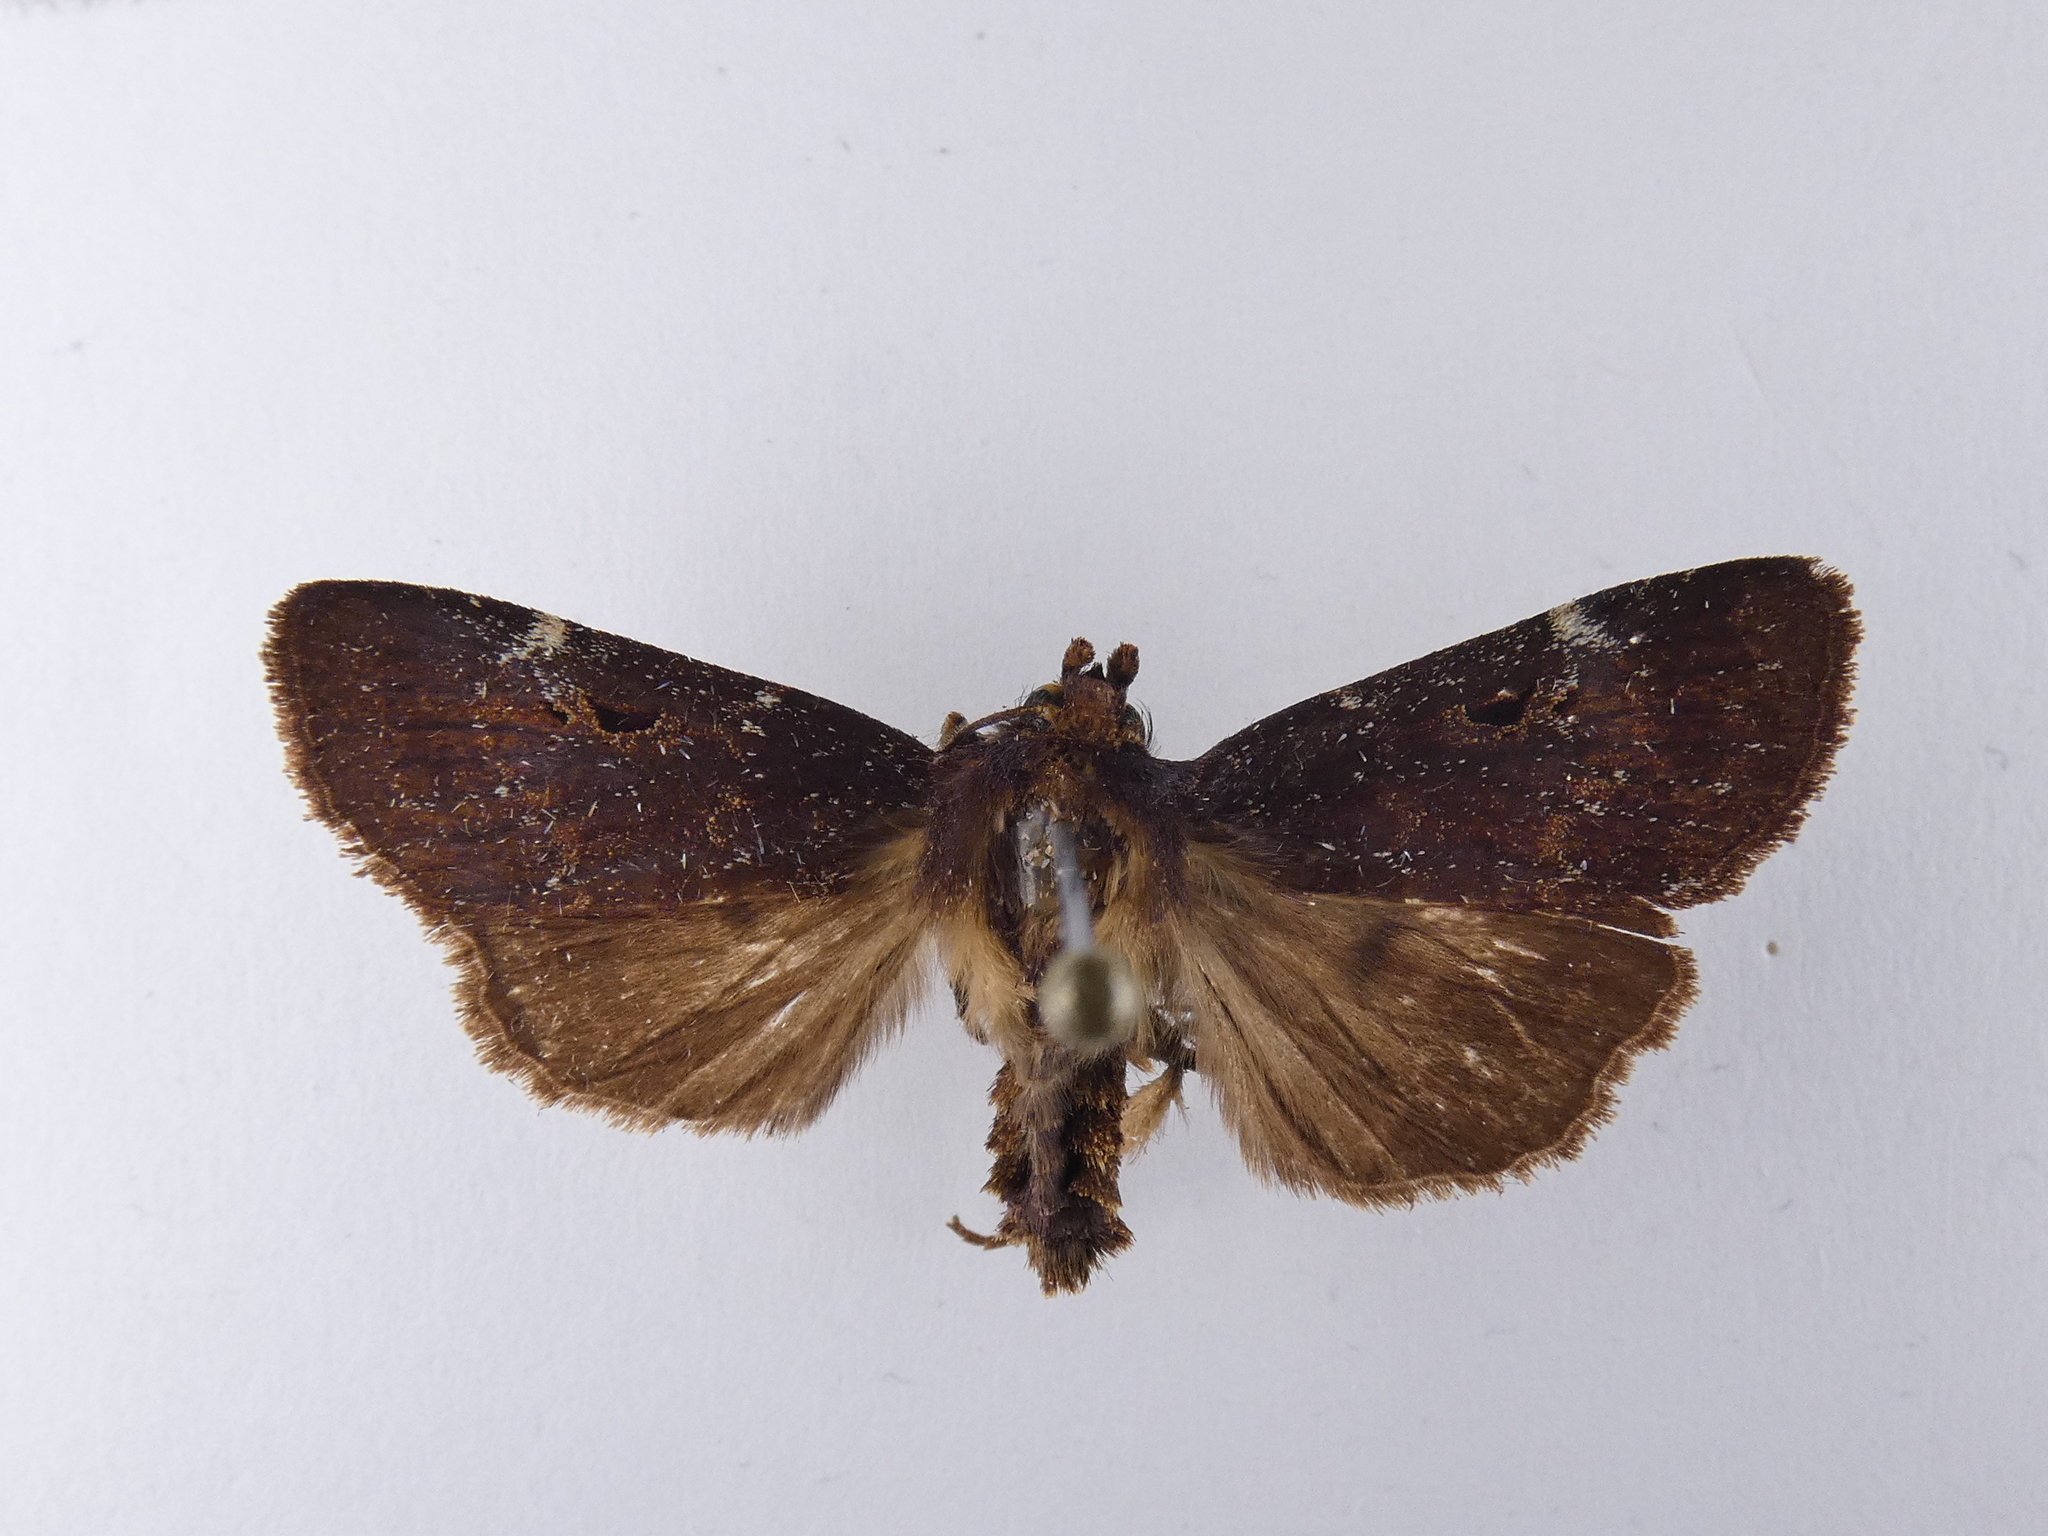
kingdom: Animalia
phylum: Arthropoda
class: Insecta
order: Lepidoptera
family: Noctuidae
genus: Austramathes
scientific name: Austramathes purpurea
